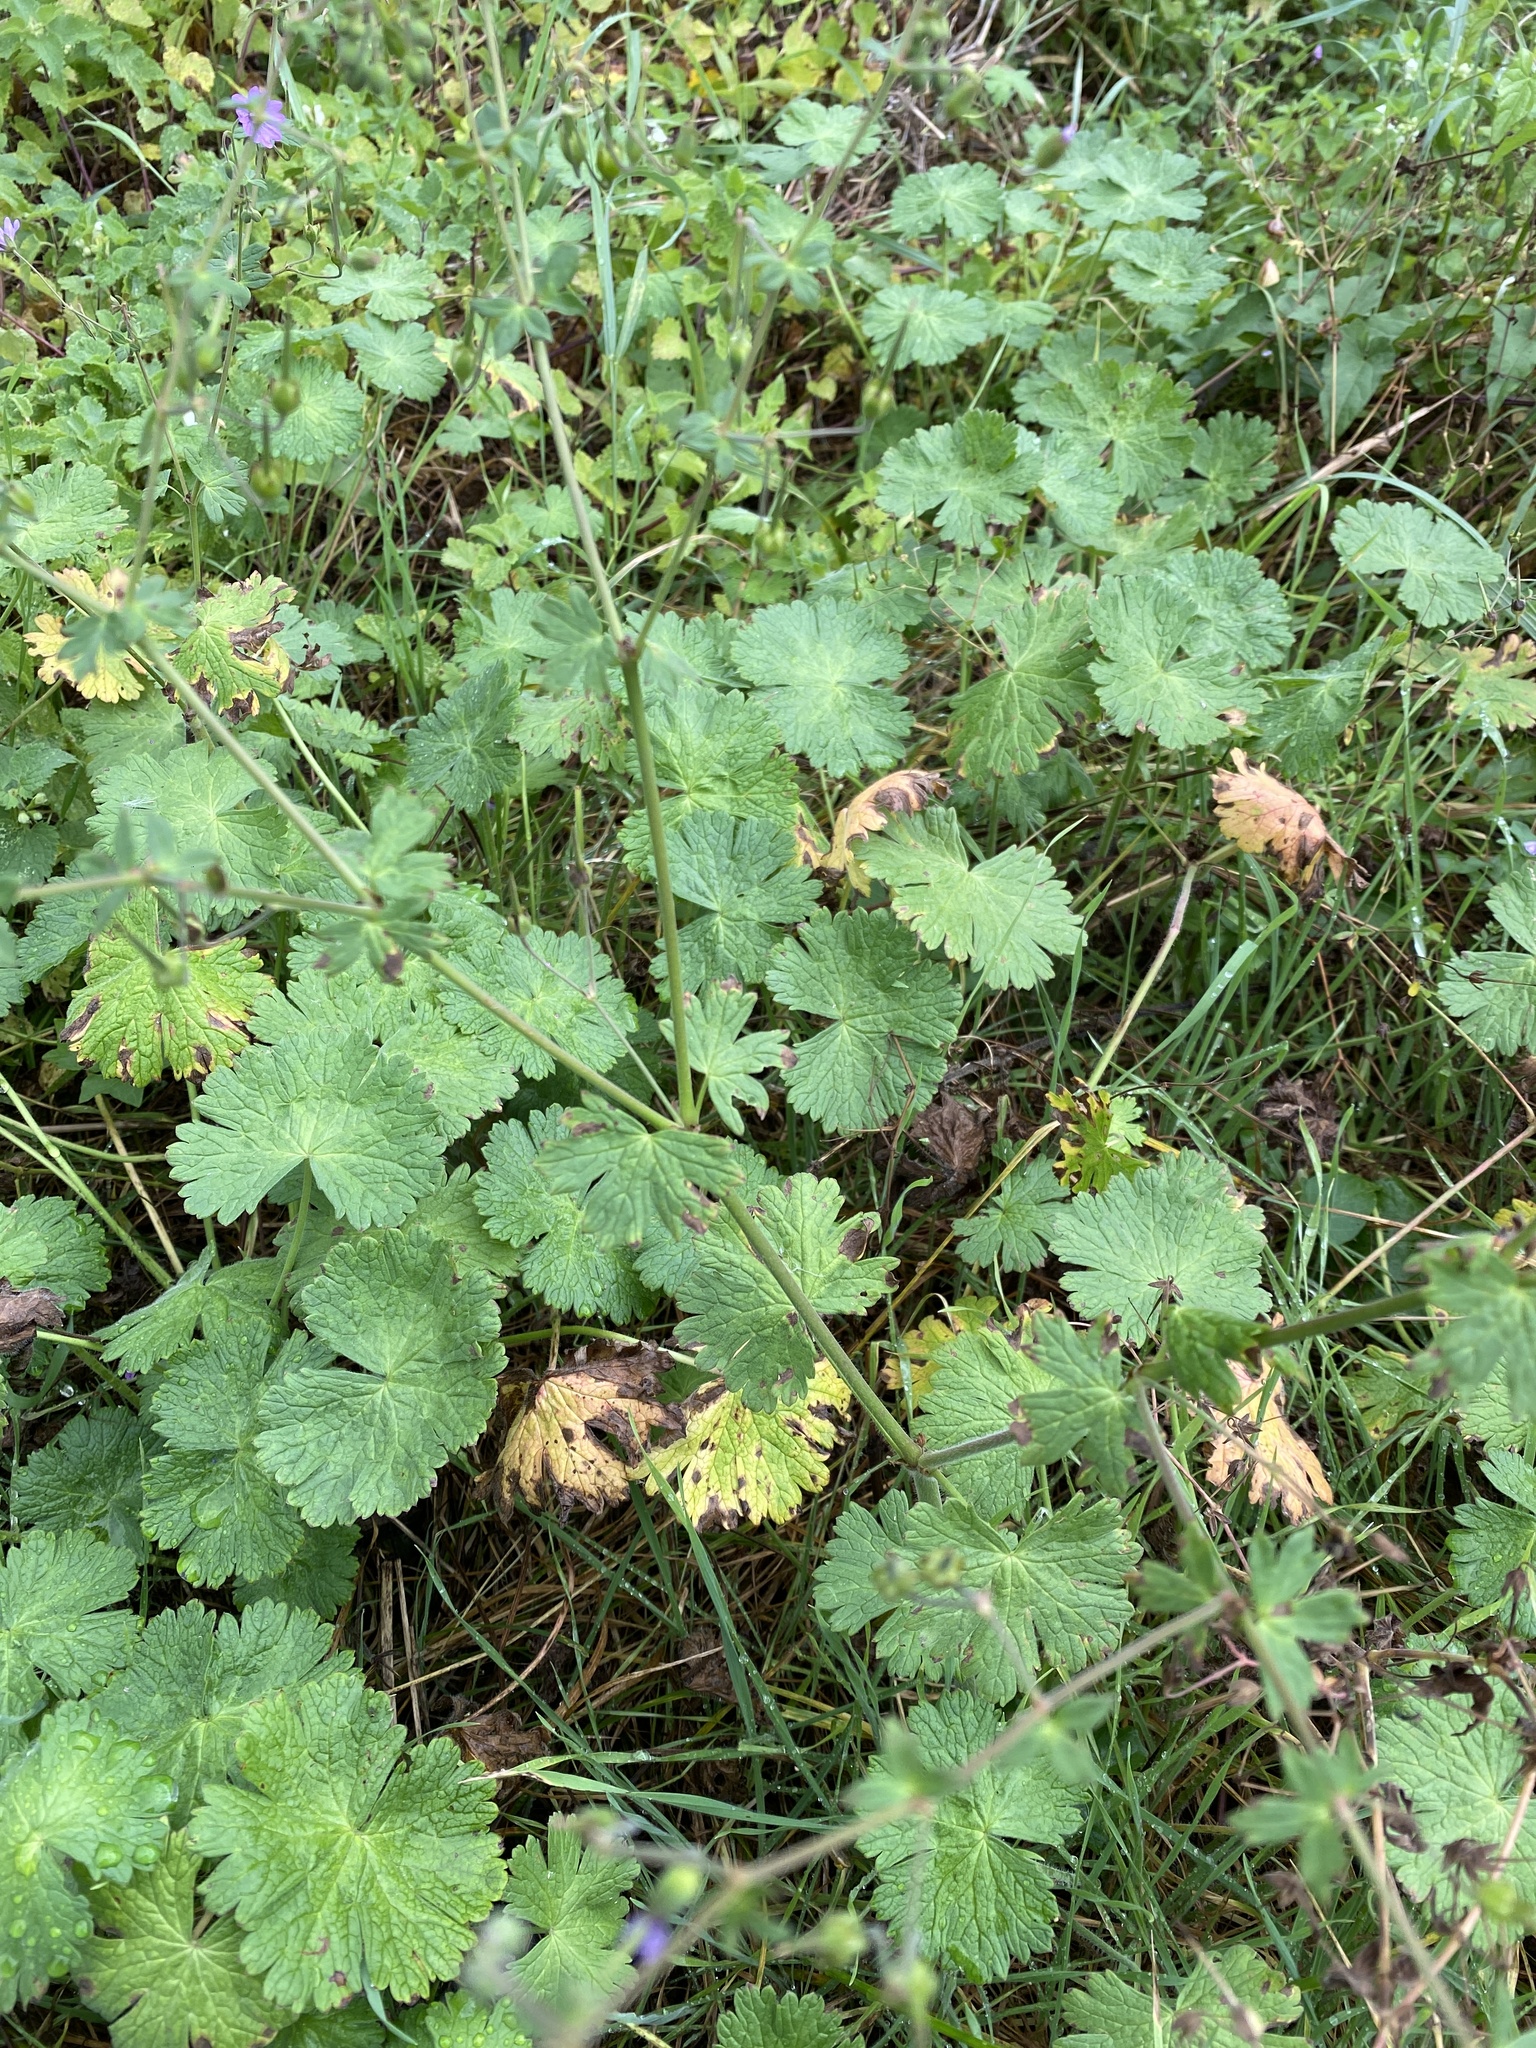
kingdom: Plantae
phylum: Tracheophyta
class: Magnoliopsida
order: Geraniales
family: Geraniaceae
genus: Geranium
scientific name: Geranium pyrenaicum
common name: Hedgerow crane's-bill
